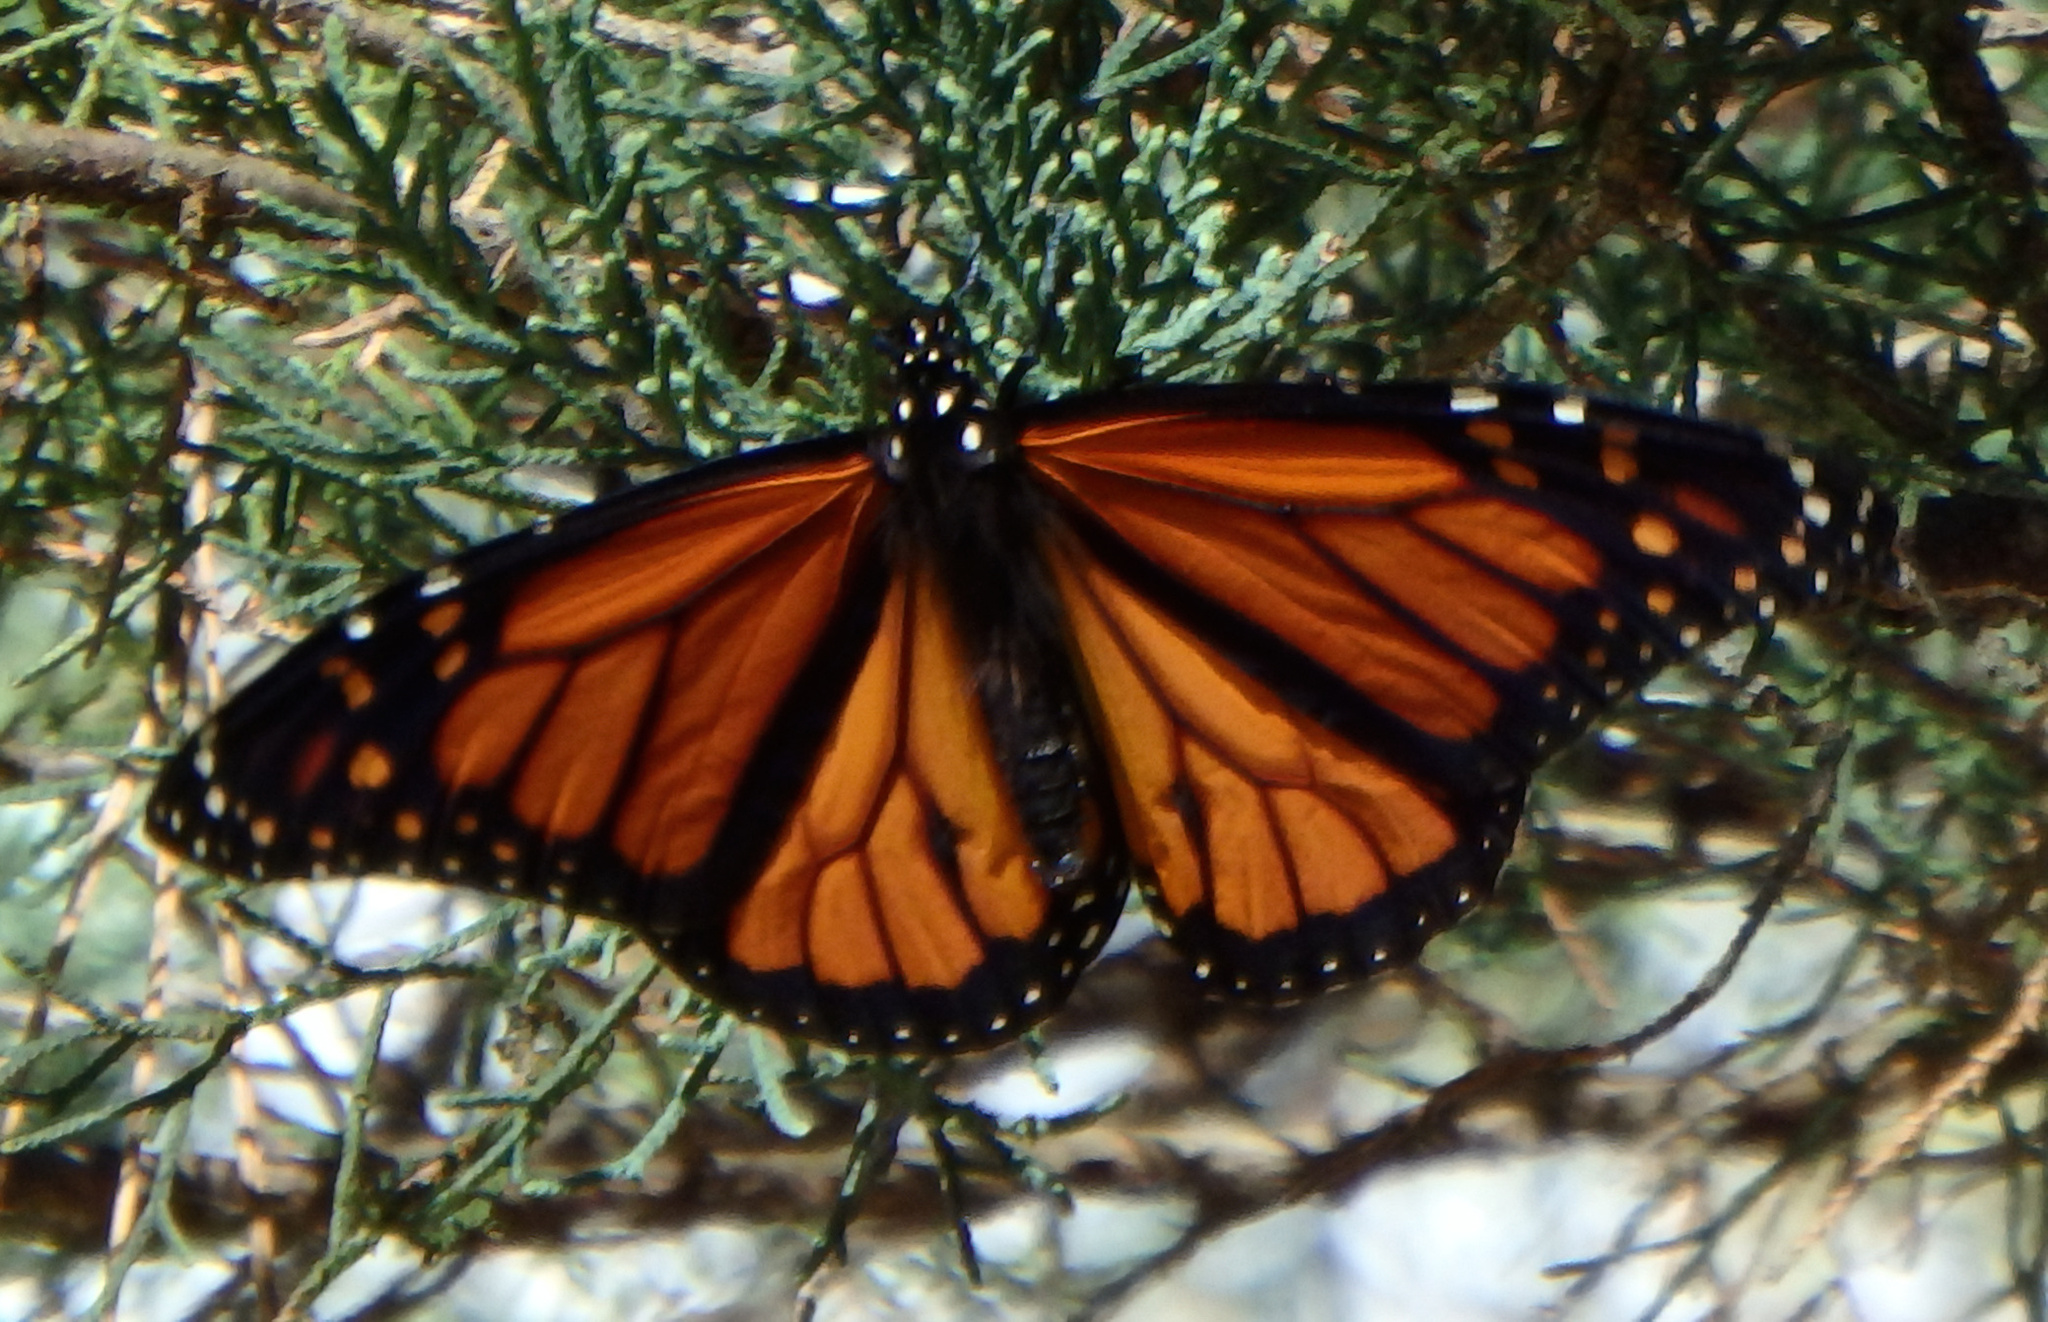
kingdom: Animalia
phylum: Arthropoda
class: Insecta
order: Lepidoptera
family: Nymphalidae
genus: Danaus
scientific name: Danaus plexippus
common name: Monarch
